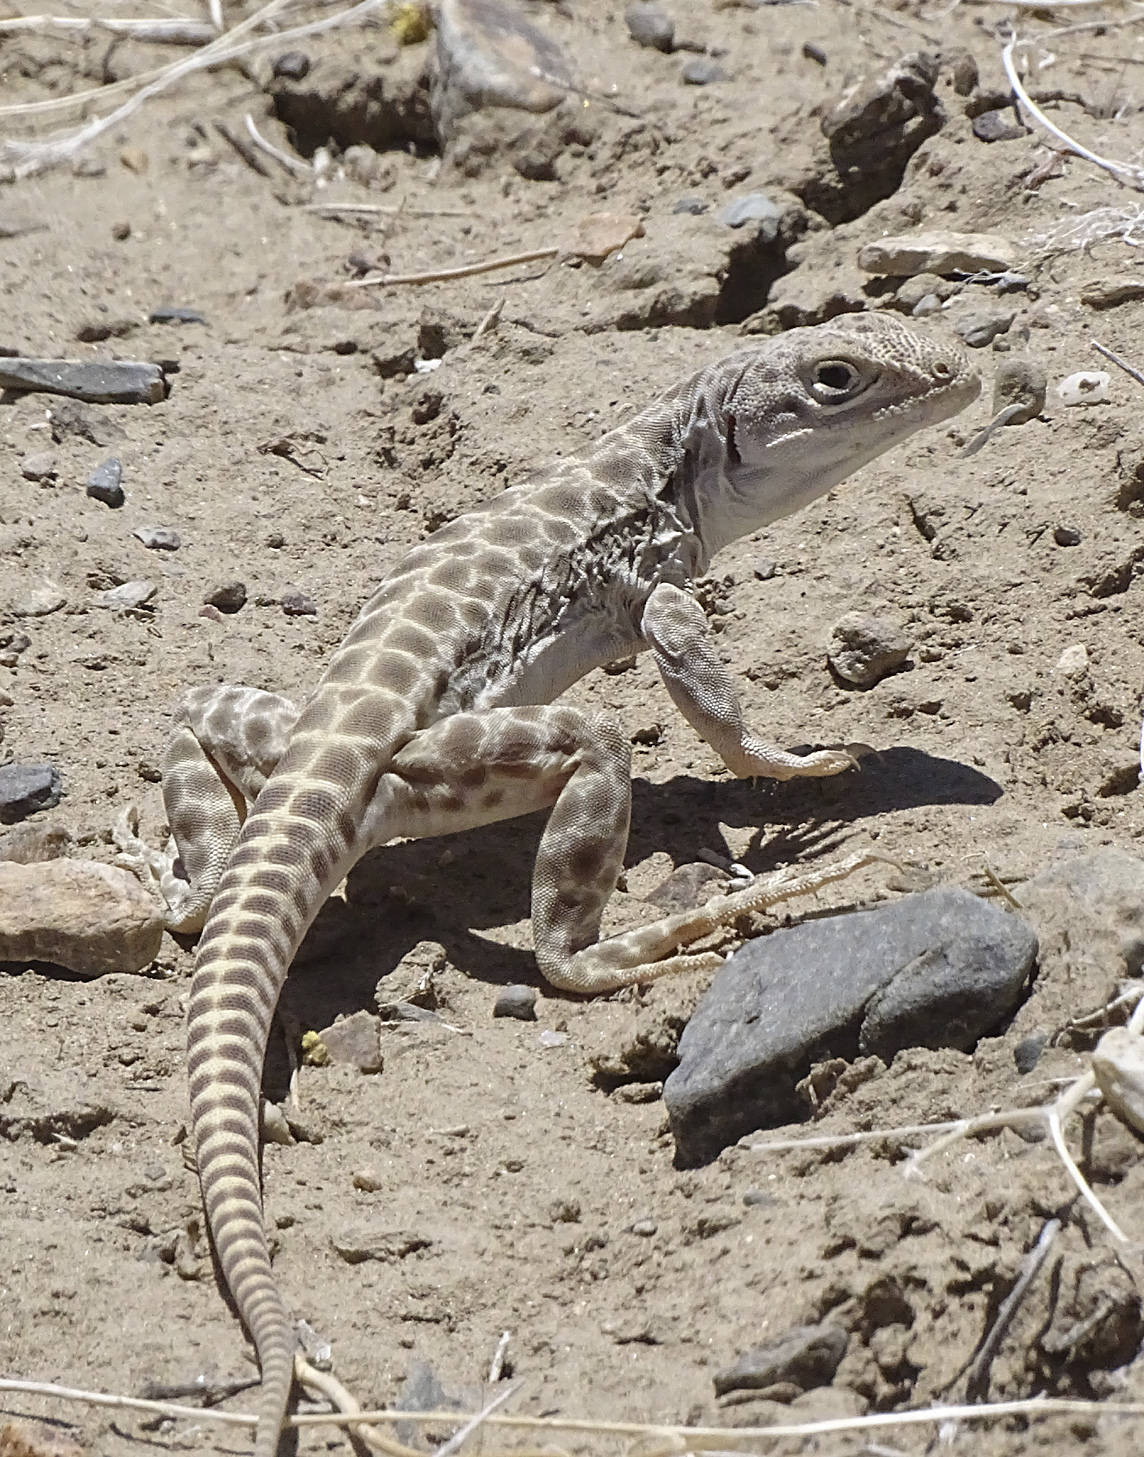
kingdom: Animalia
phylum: Chordata
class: Squamata
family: Crotaphytidae
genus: Gambelia
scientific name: Gambelia wislizenii
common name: Longnose leopard lizard
